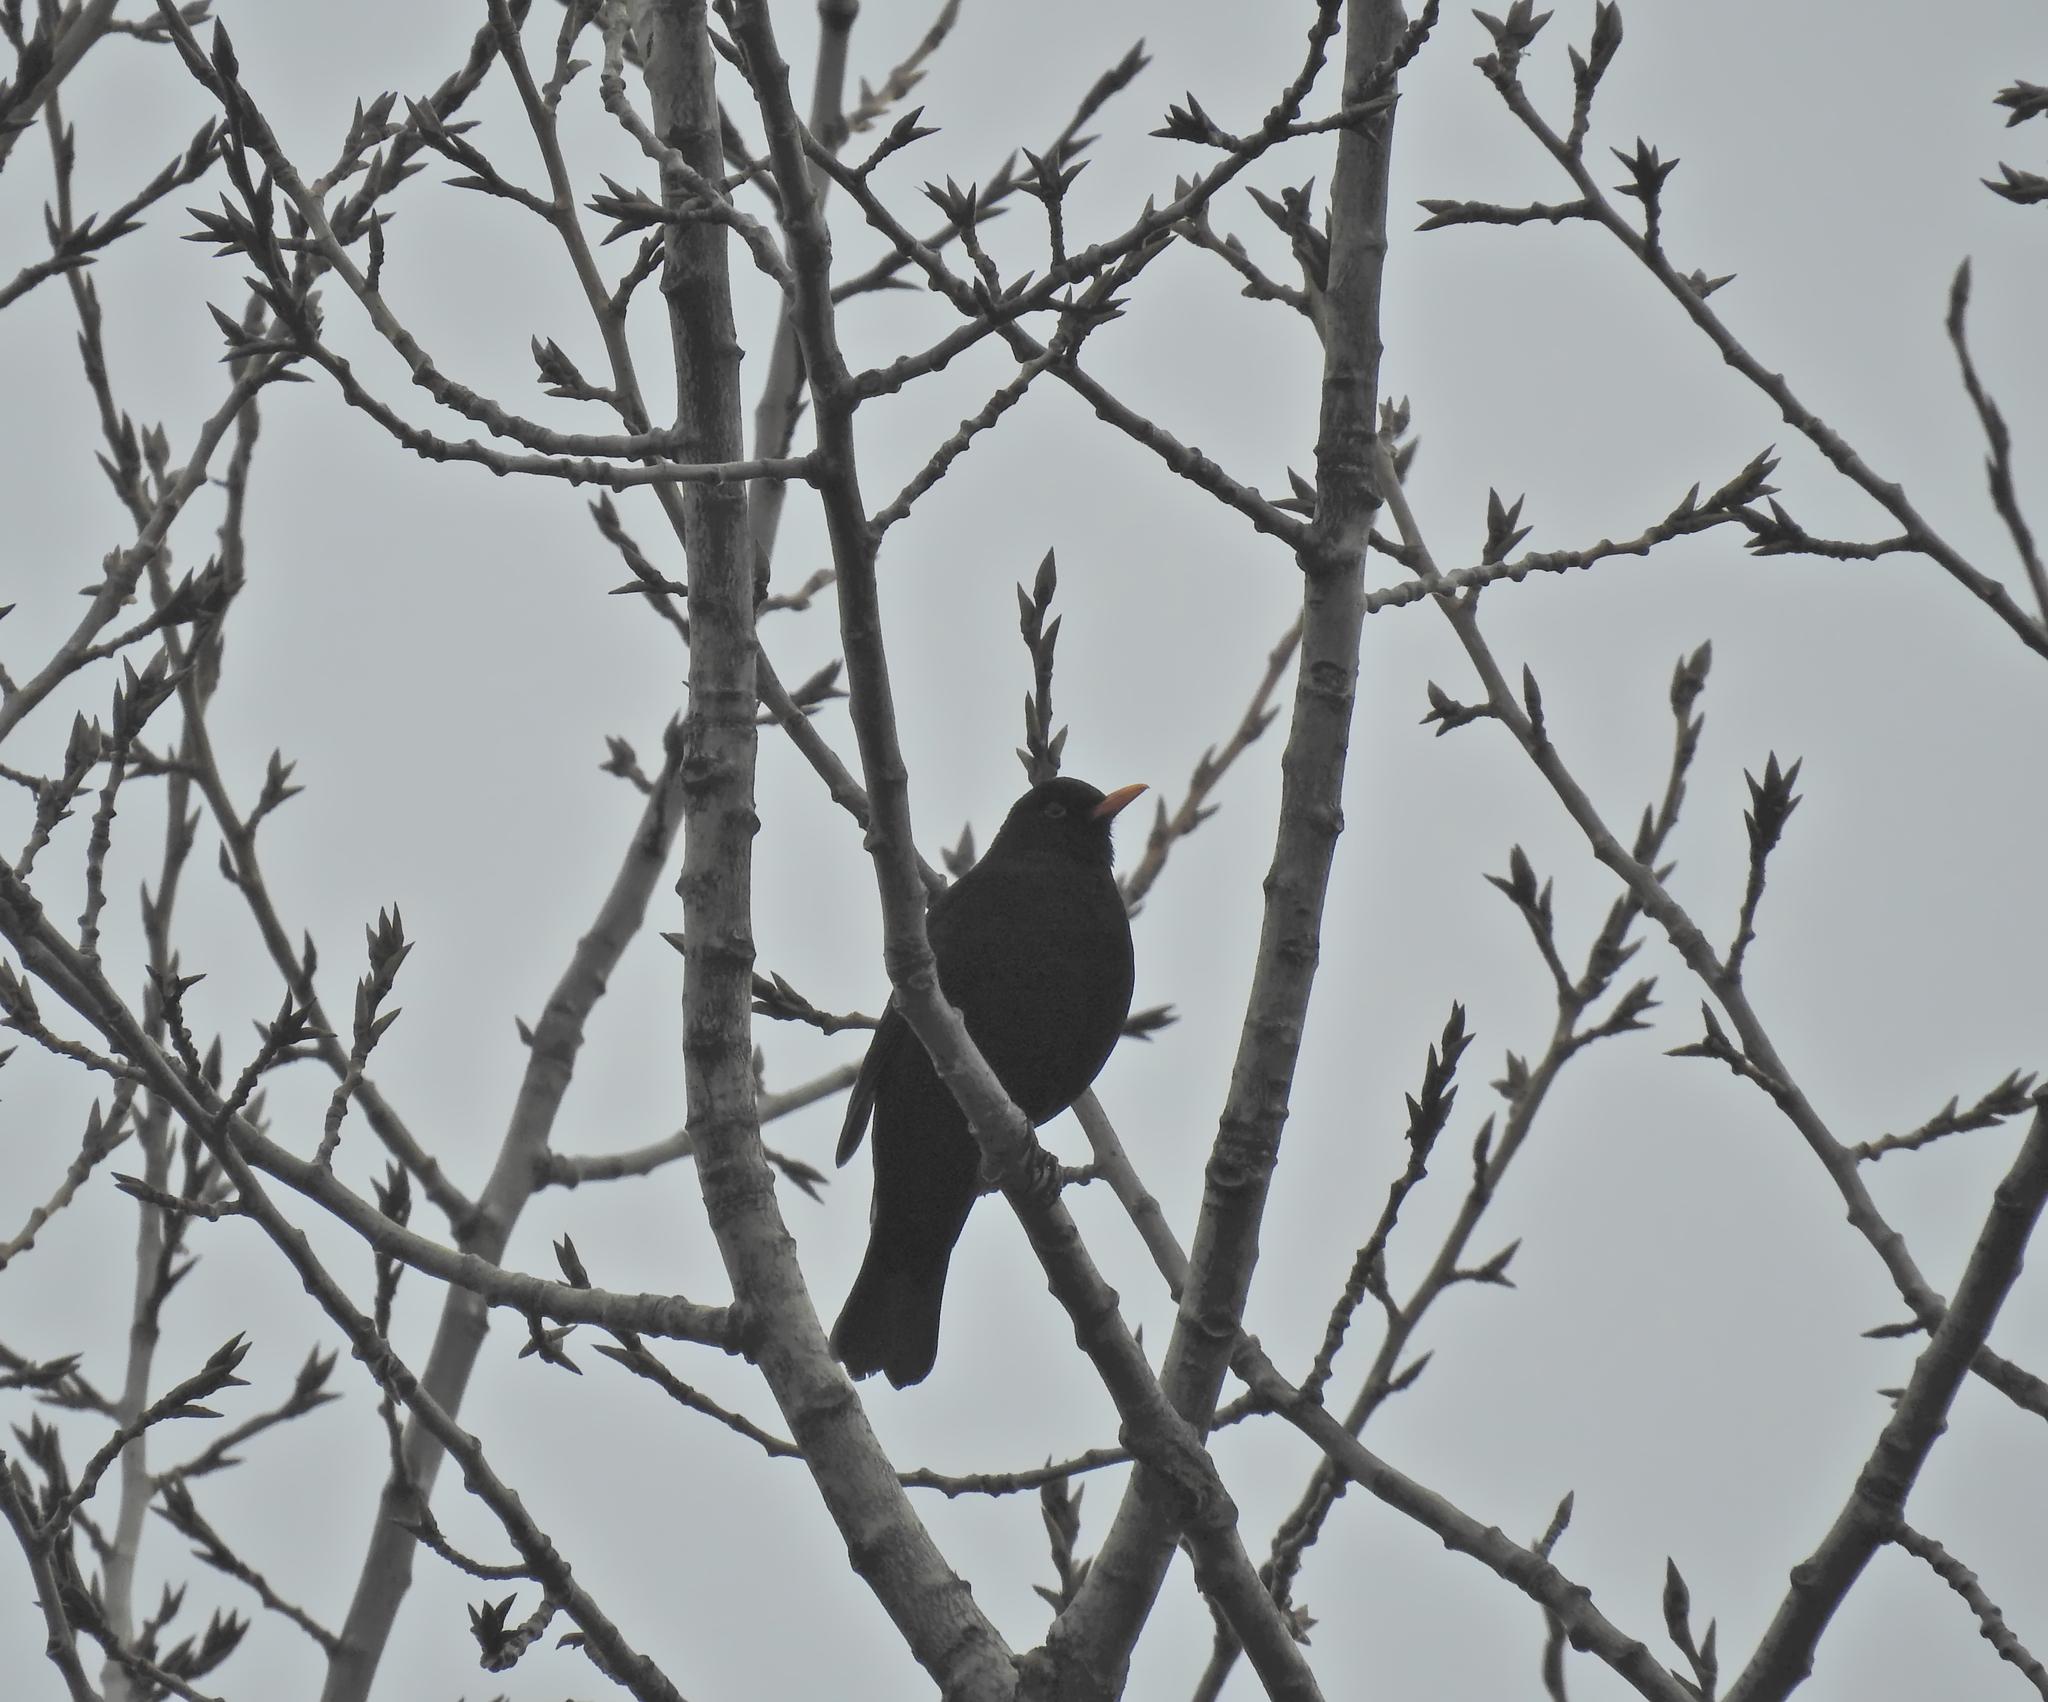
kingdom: Animalia
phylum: Chordata
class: Aves
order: Passeriformes
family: Turdidae
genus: Turdus
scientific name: Turdus merula
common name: Common blackbird
